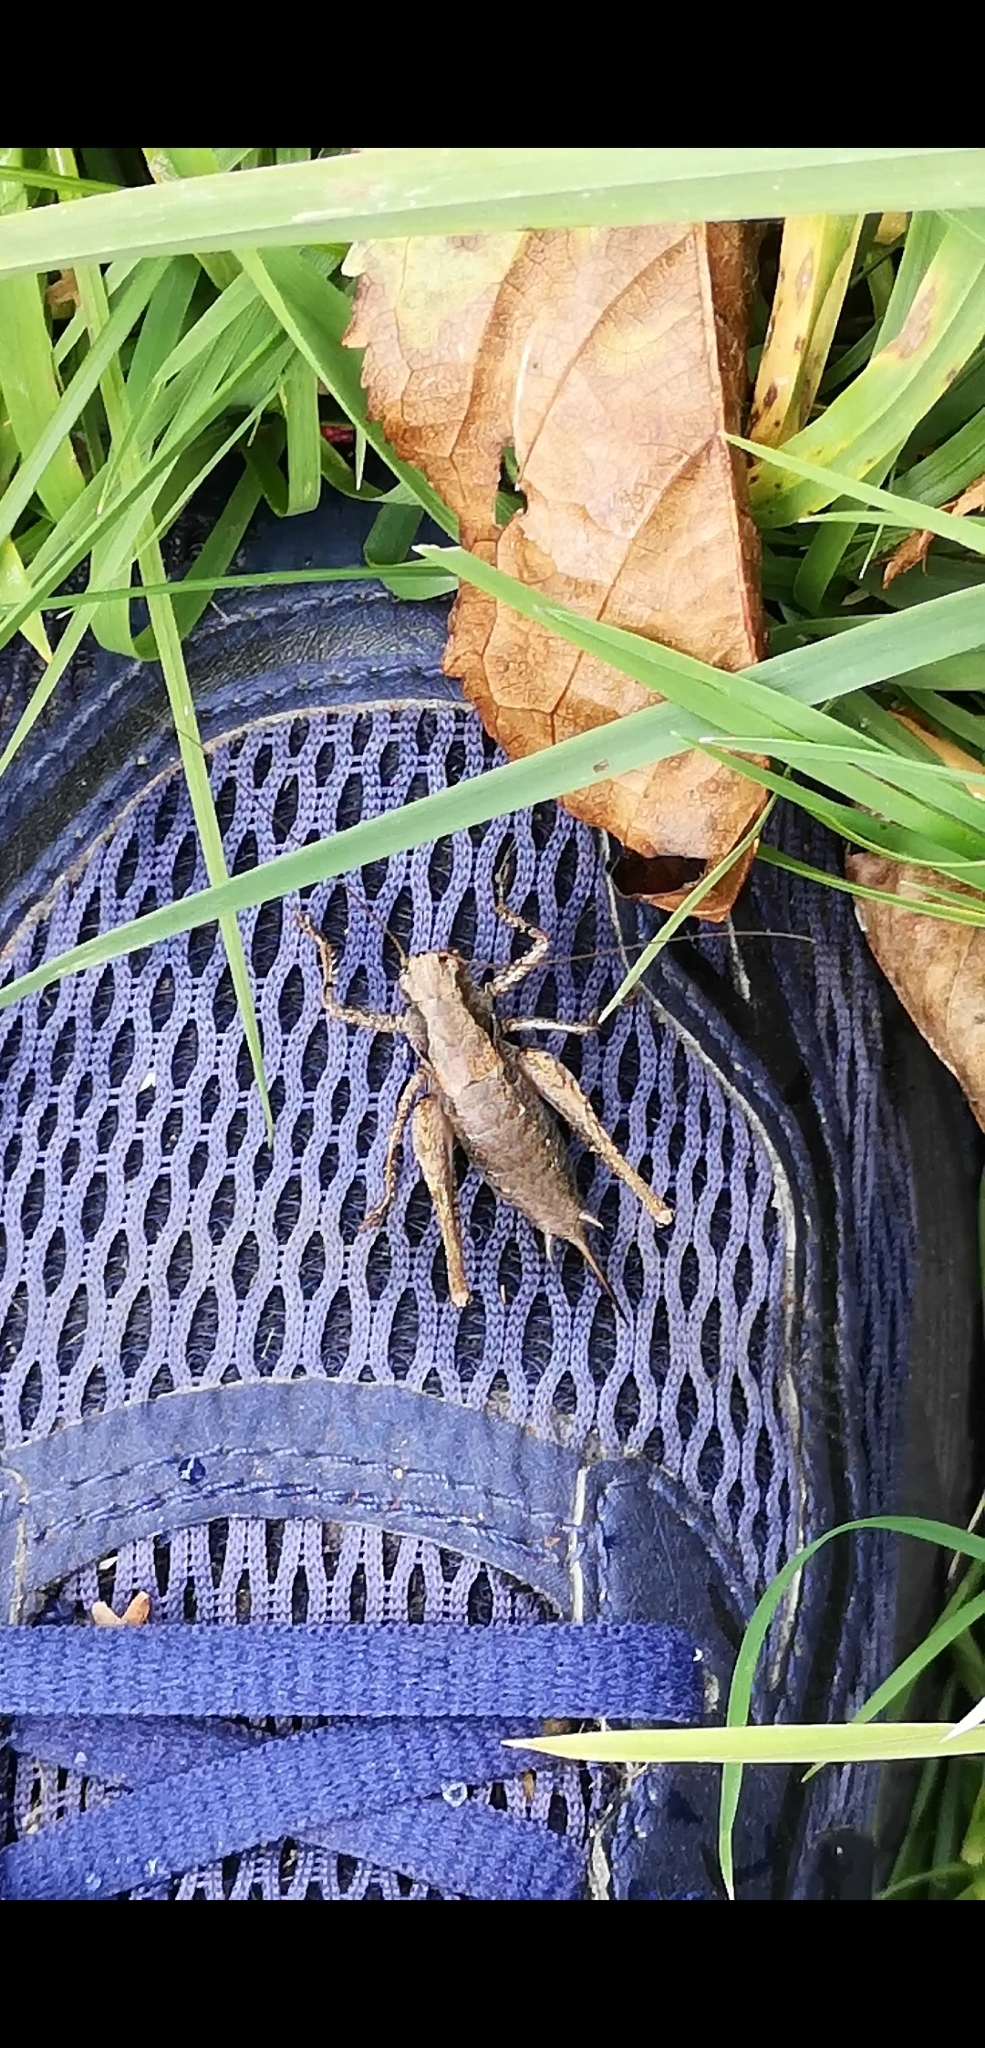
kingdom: Animalia
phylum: Arthropoda
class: Insecta
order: Orthoptera
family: Tettigoniidae
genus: Pholidoptera
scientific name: Pholidoptera griseoaptera
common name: Dark bush-cricket
